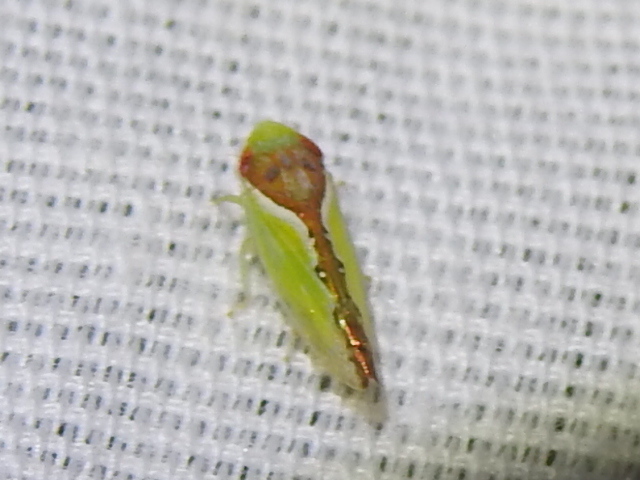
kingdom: Animalia
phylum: Arthropoda
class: Insecta
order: Hemiptera
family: Cicadellidae
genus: Omansobara ing
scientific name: Omansobara ing Omansobara palliolata
